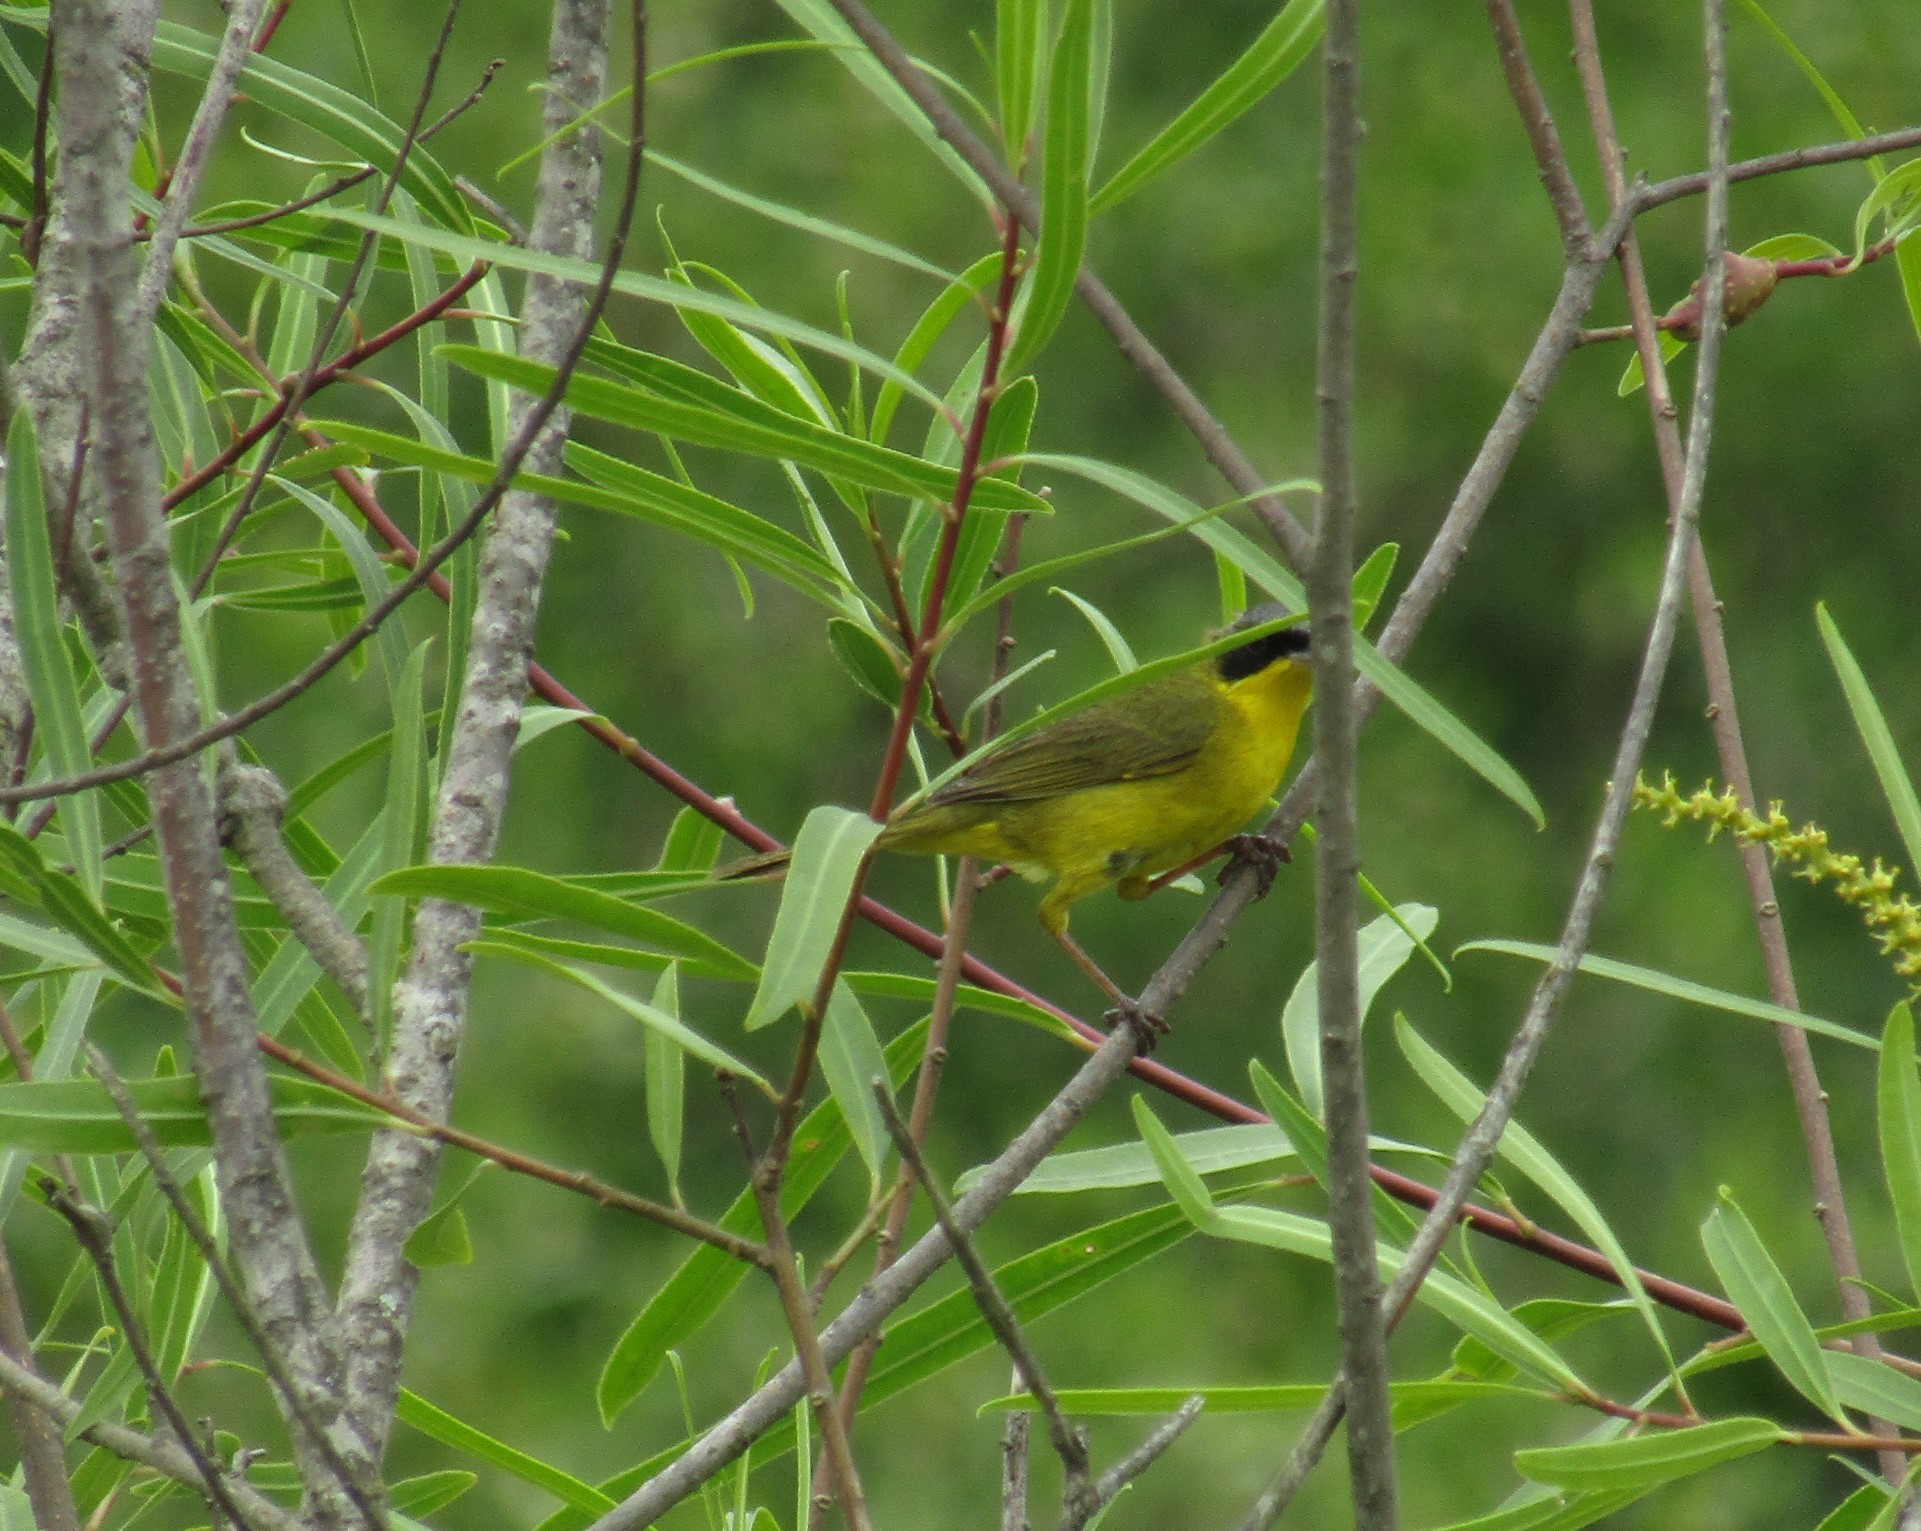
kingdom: Animalia
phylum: Chordata
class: Aves
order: Passeriformes
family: Parulidae
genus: Geothlypis
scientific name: Geothlypis velata
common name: Southern yellowthroat
